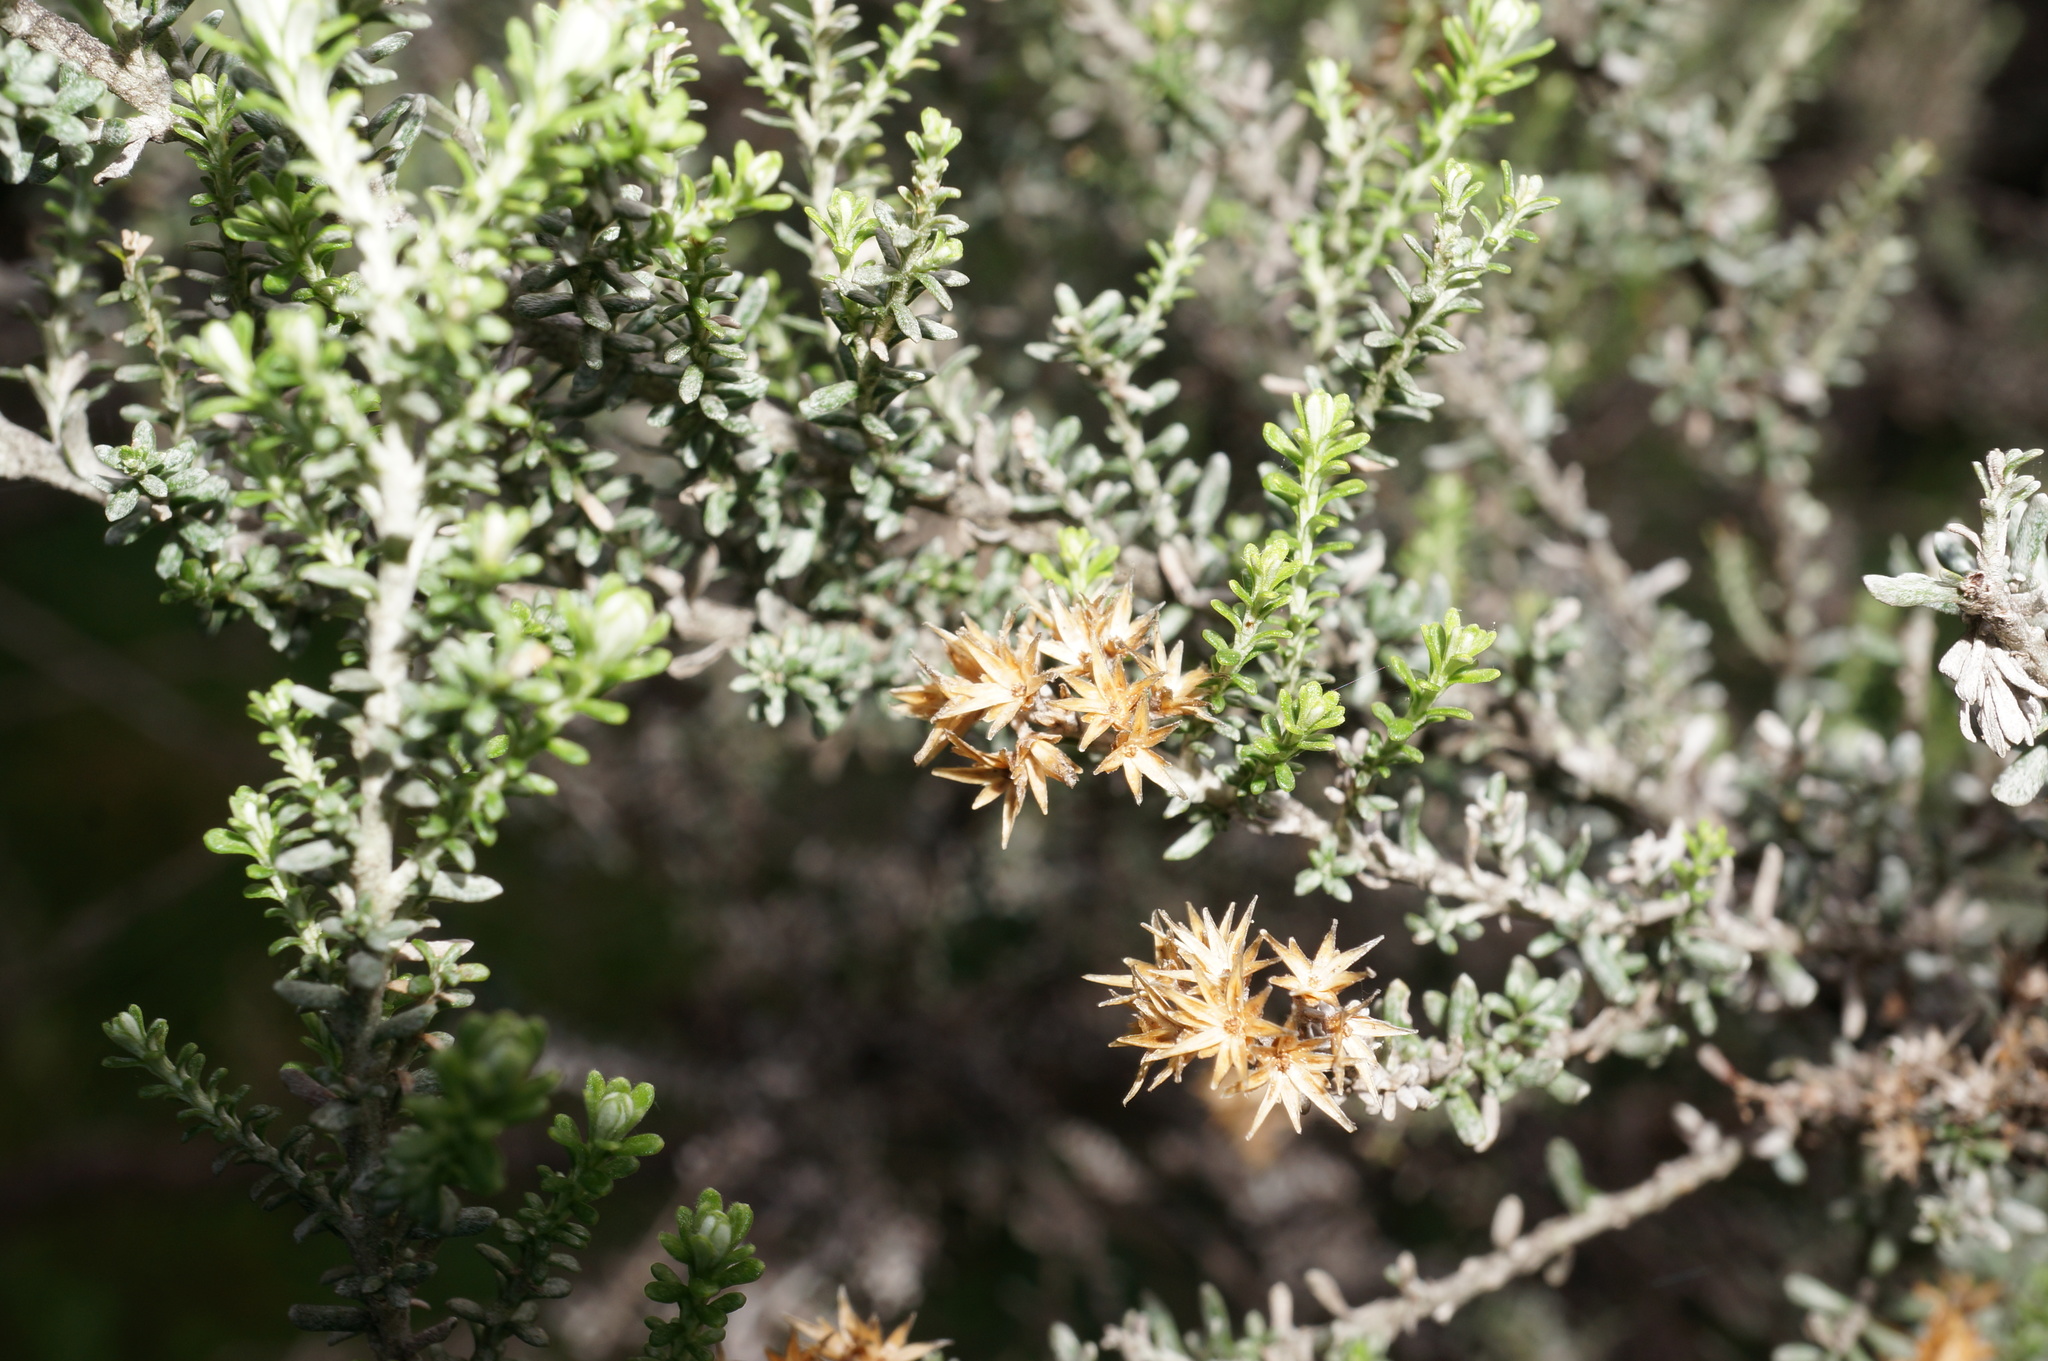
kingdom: Plantae
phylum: Tracheophyta
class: Magnoliopsida
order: Asterales
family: Asteraceae
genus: Ozothamnus
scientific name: Ozothamnus leptophyllus
